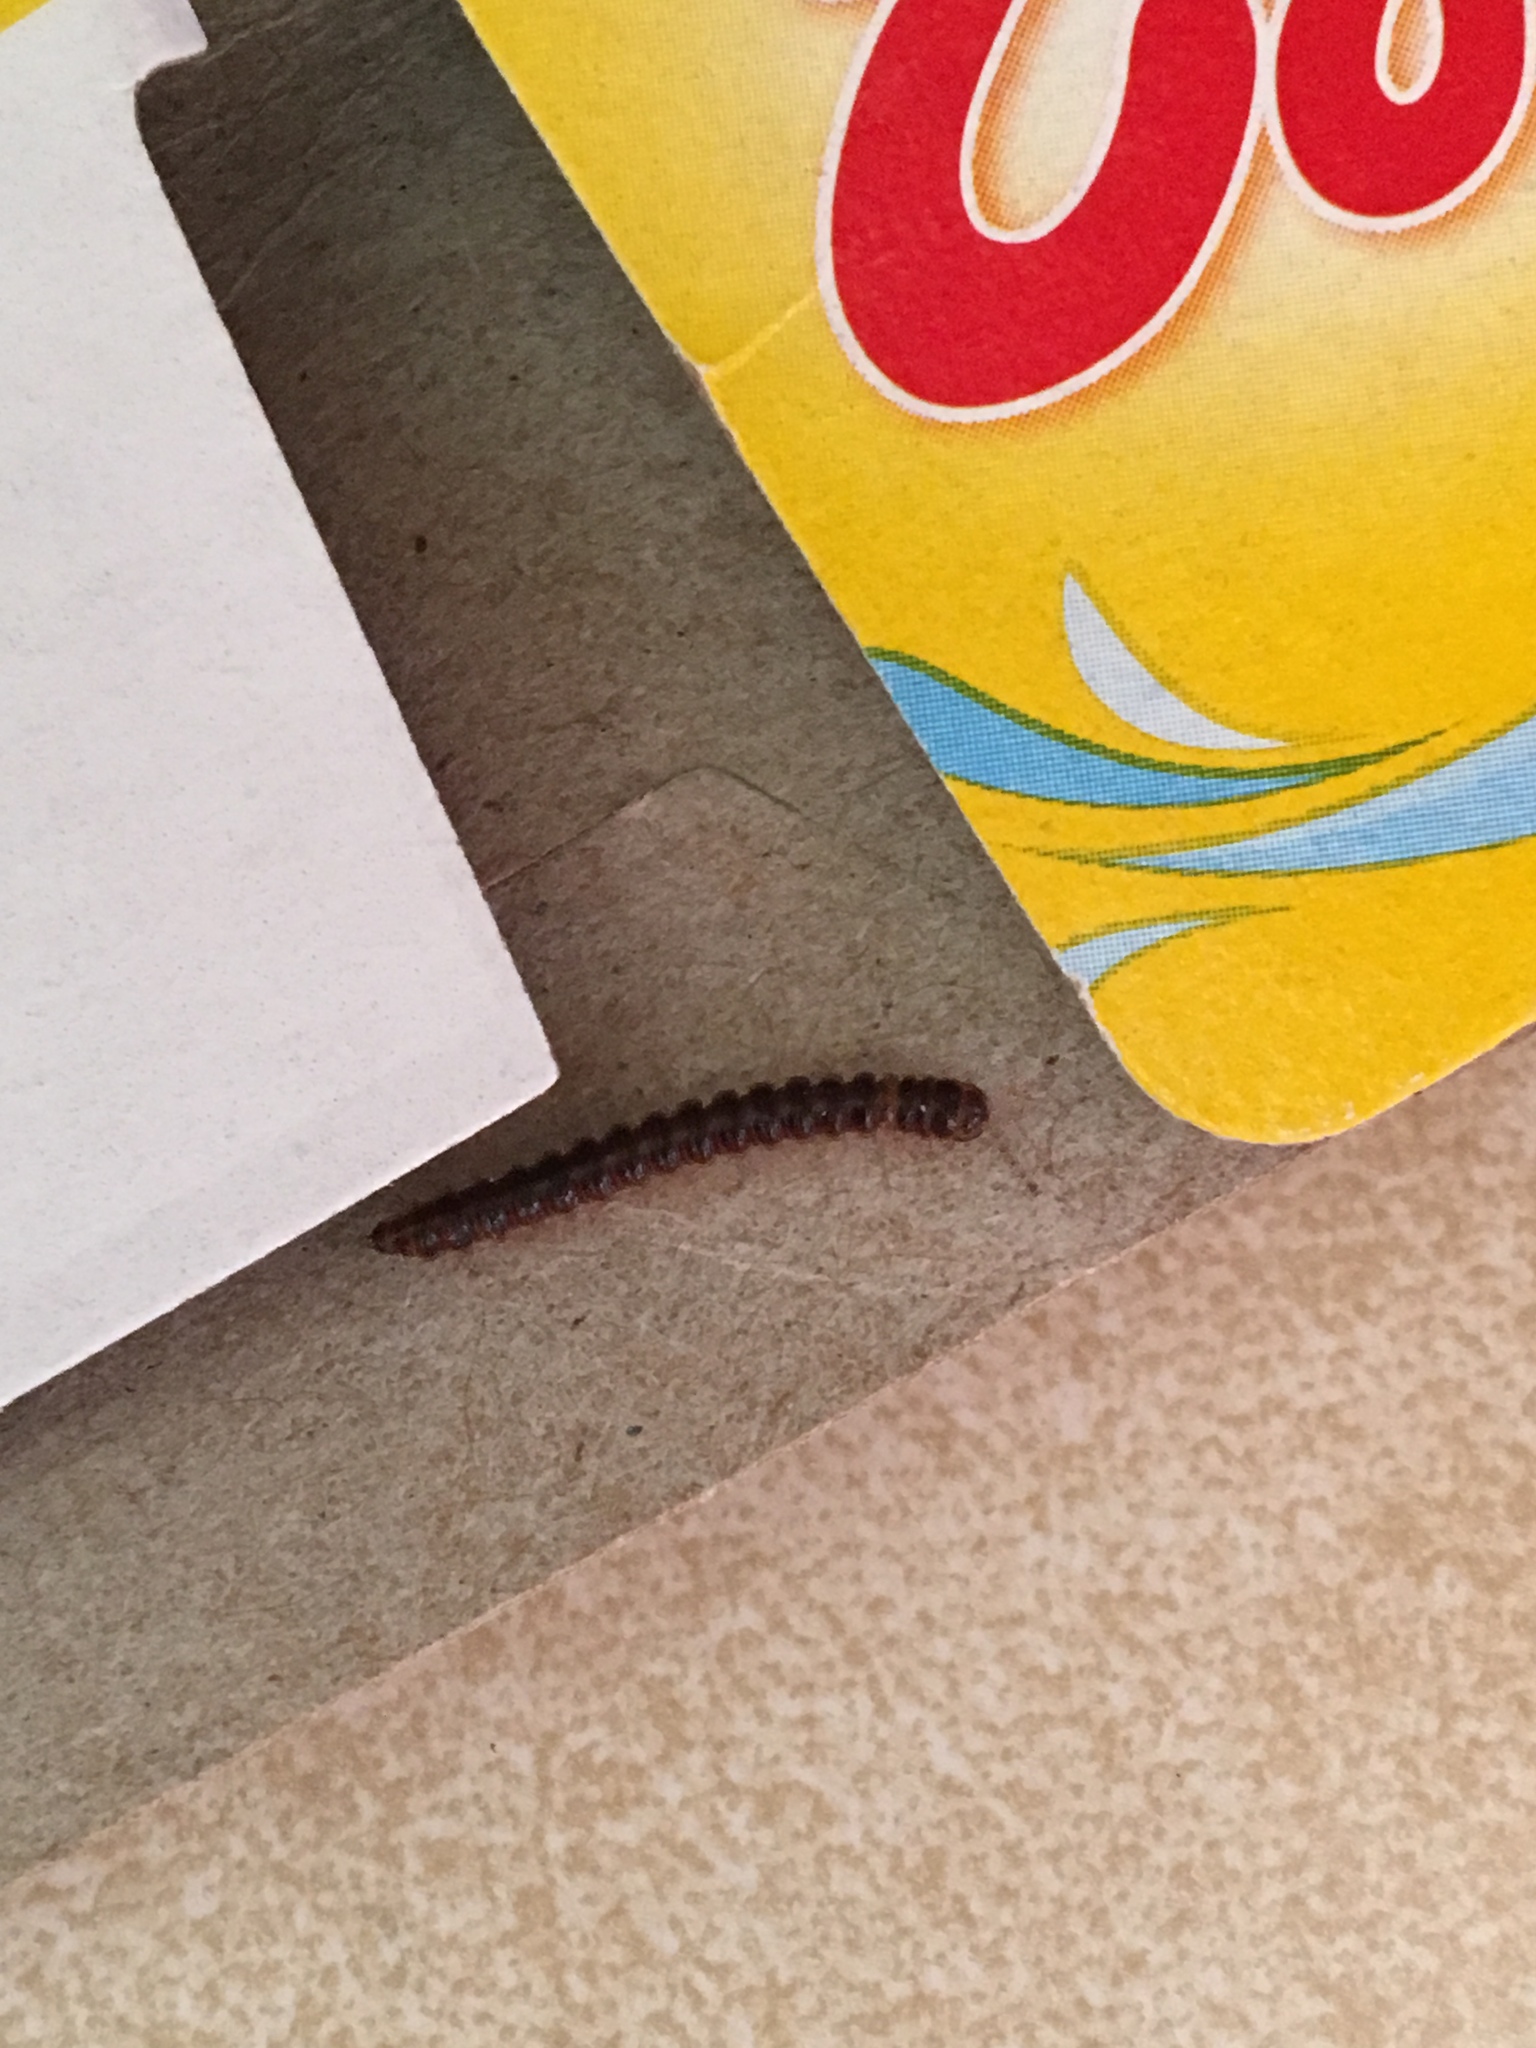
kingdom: Animalia
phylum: Arthropoda
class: Diplopoda
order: Polydesmida
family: Paradoxosomatidae
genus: Oxidus
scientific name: Oxidus gracilis
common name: Greenhouse millipede
